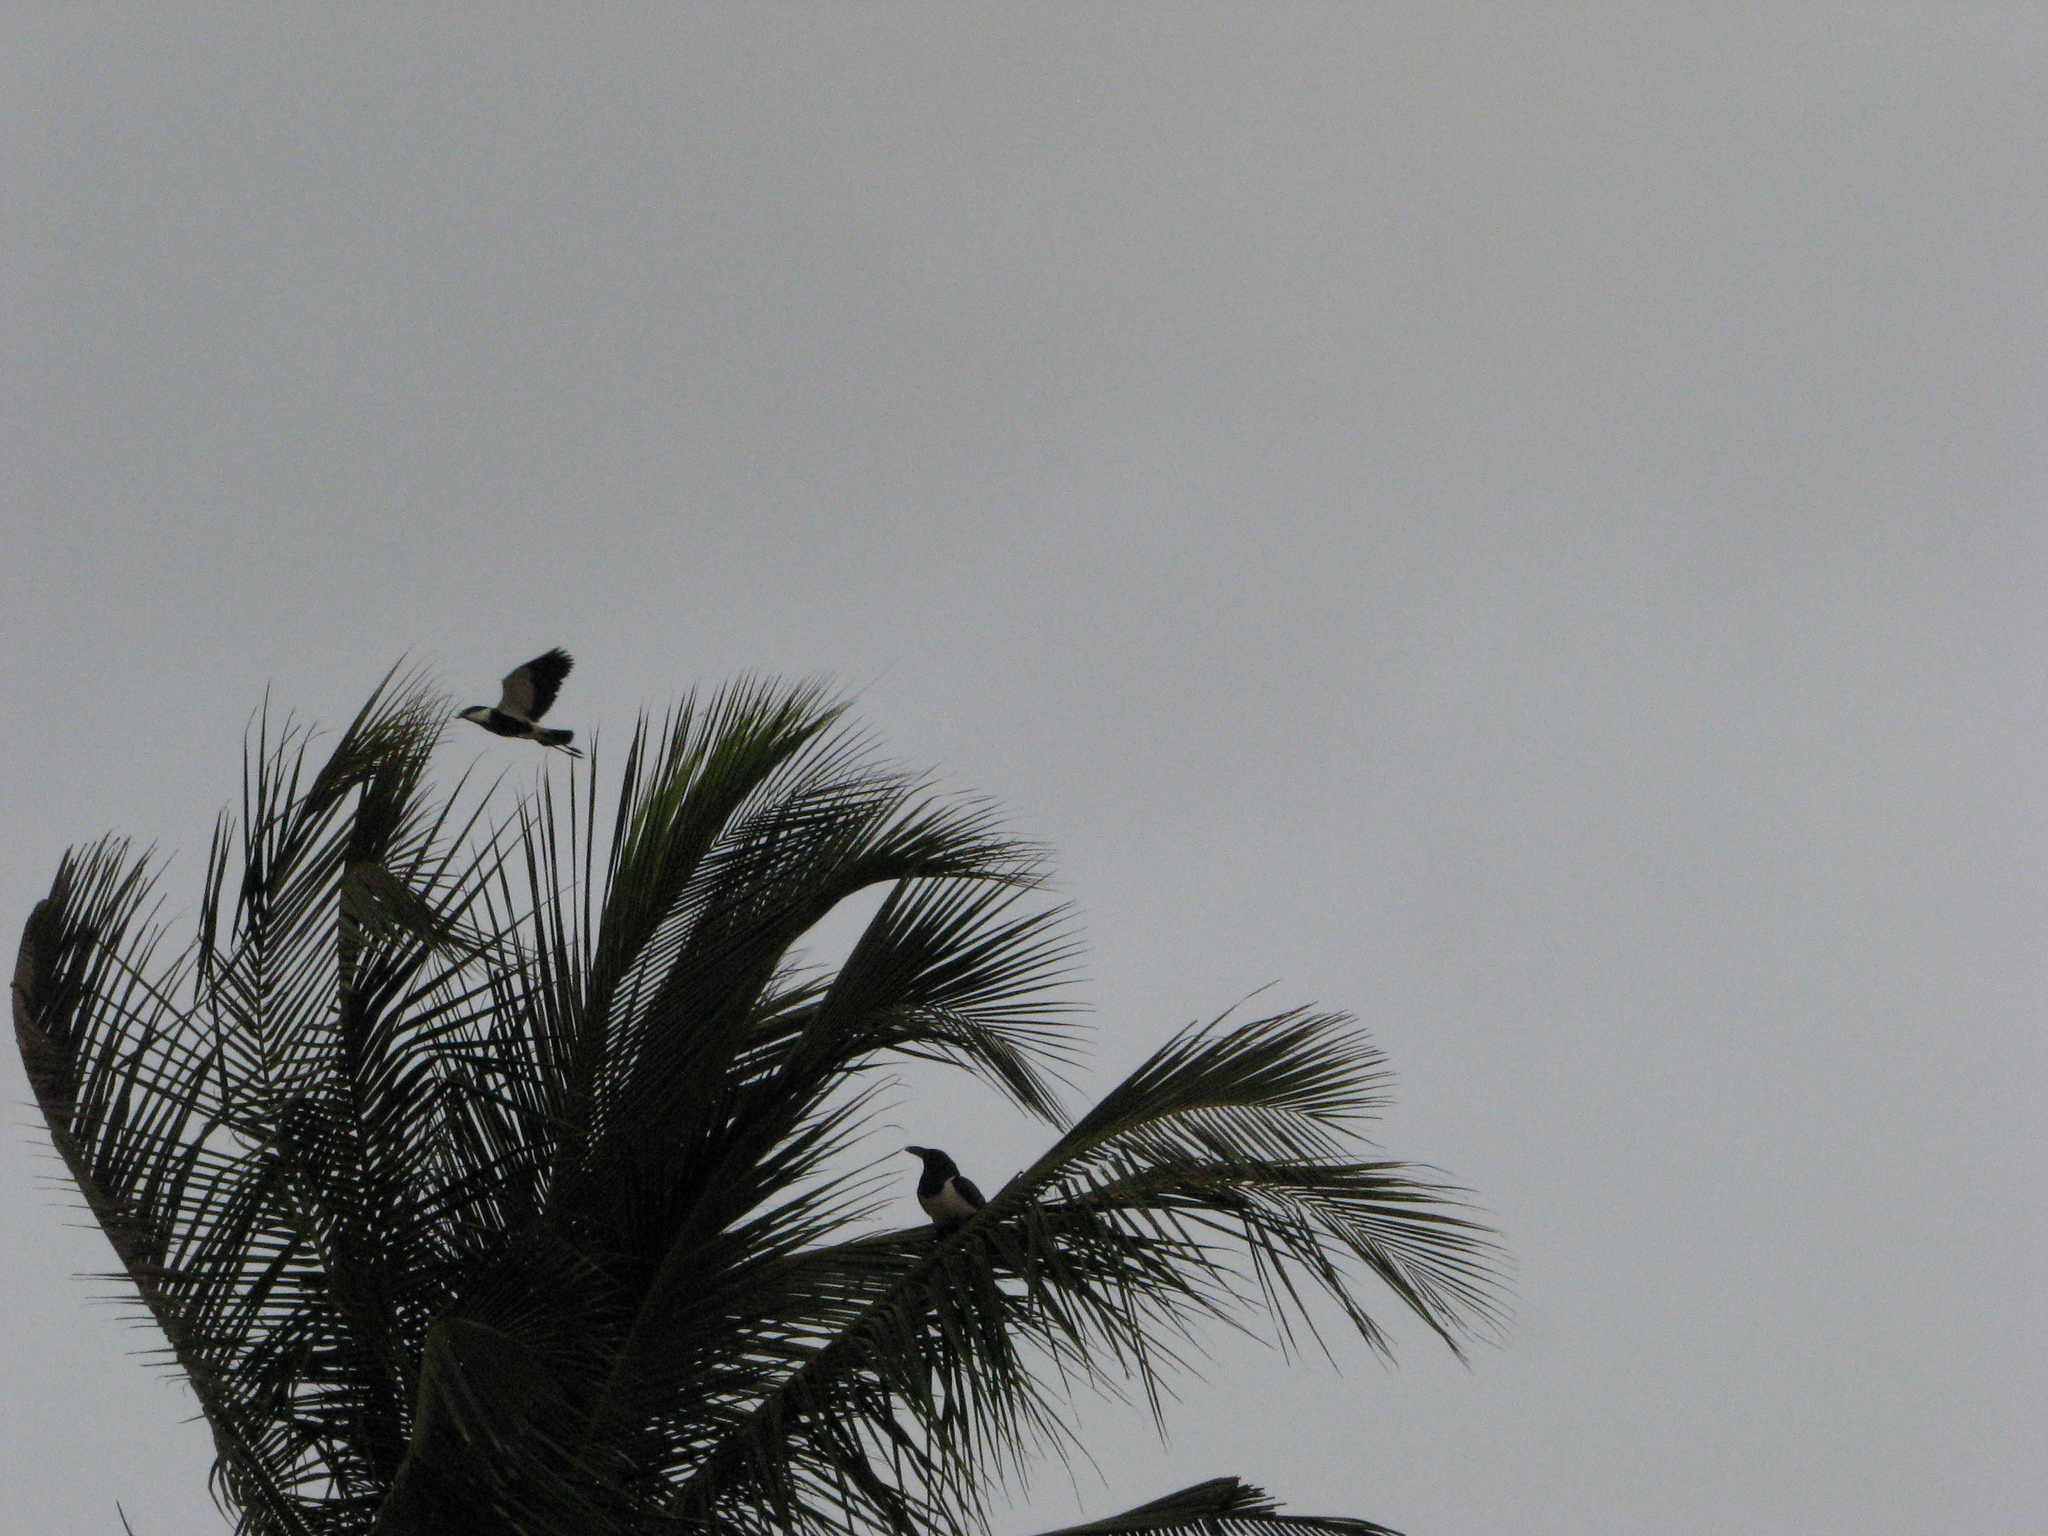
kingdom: Animalia
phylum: Chordata
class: Aves
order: Passeriformes
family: Corvidae
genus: Corvus
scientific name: Corvus albus
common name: Pied crow
